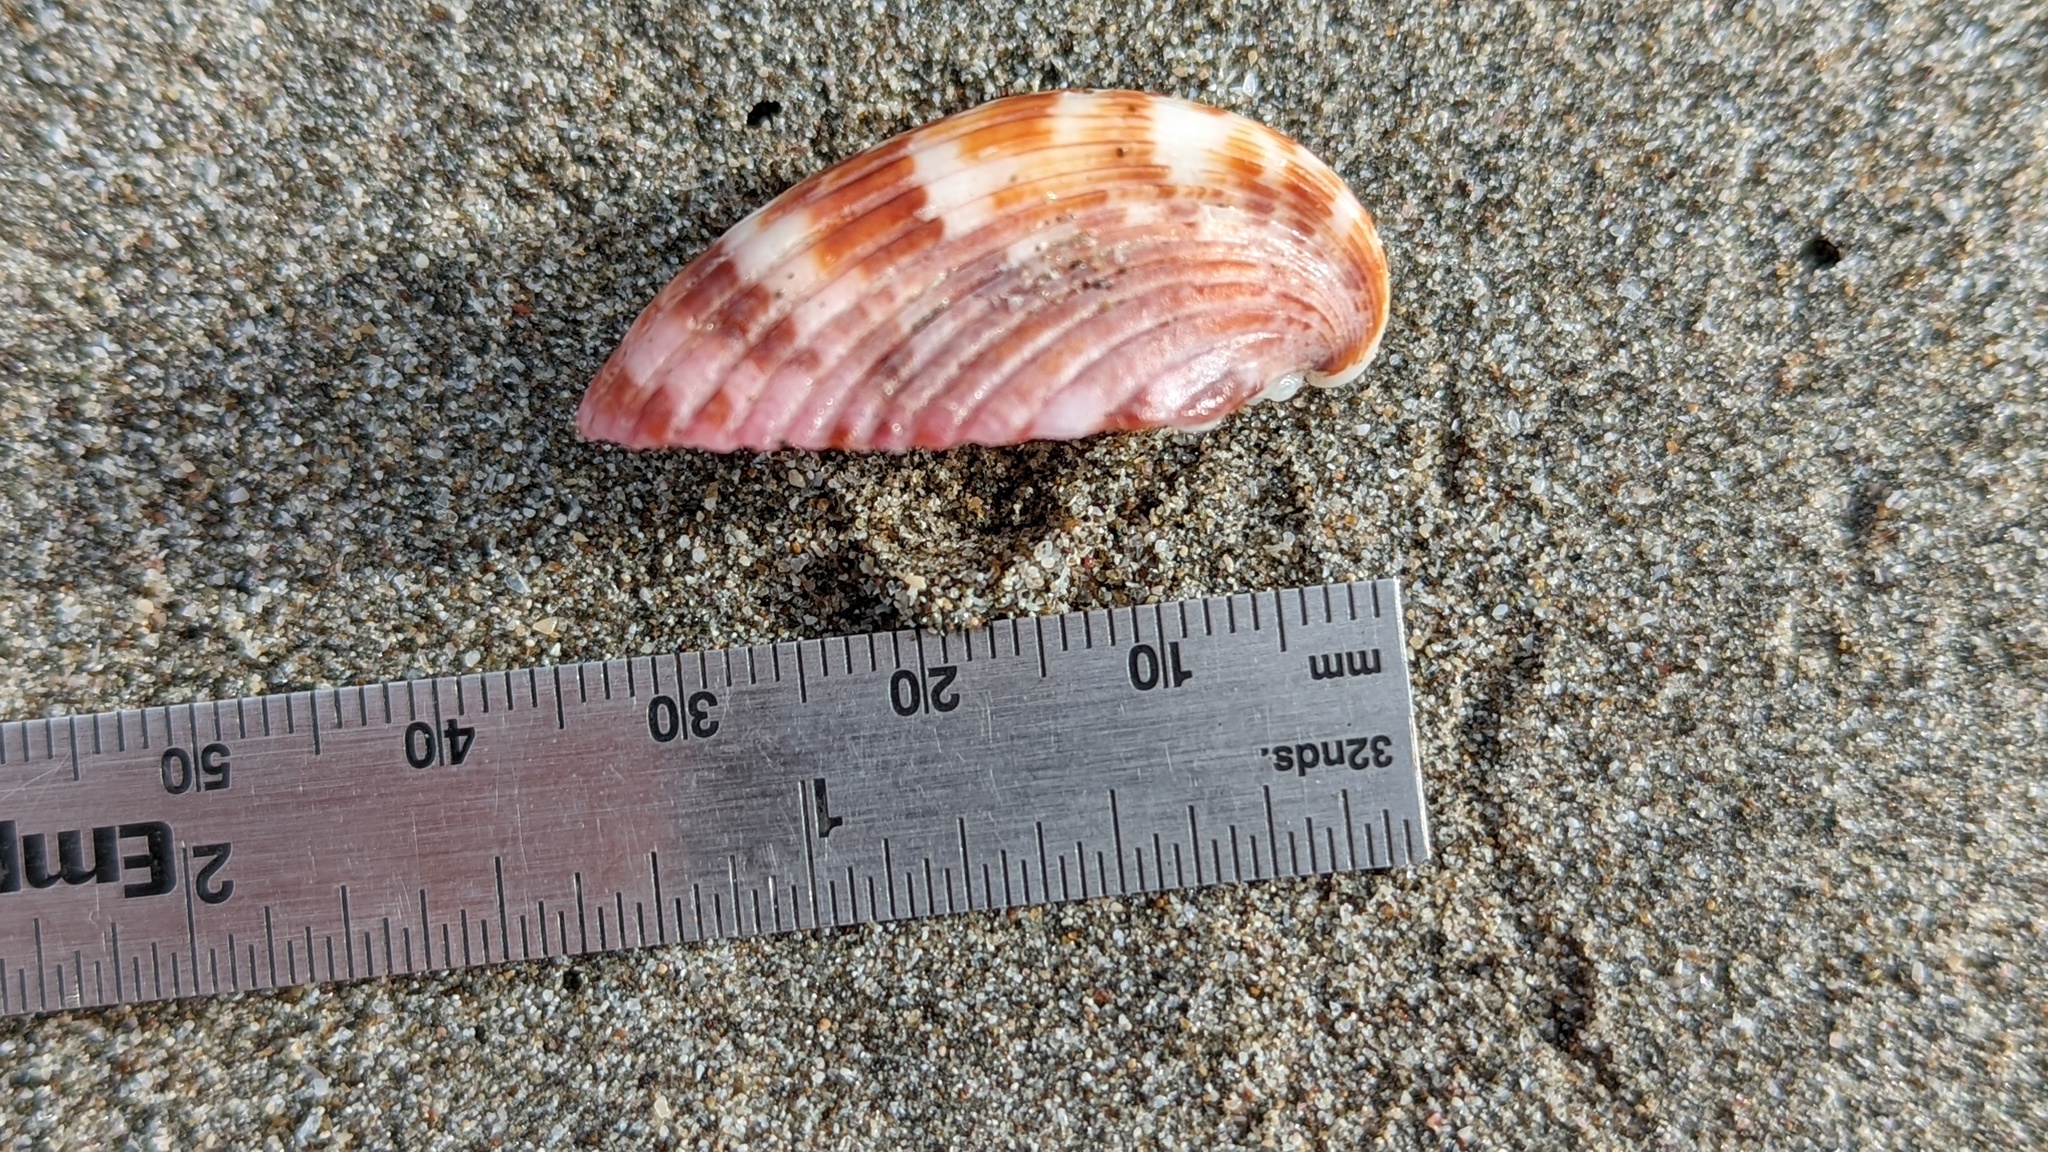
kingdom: Animalia
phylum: Mollusca
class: Bivalvia
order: Cardiida
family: Cardiidae
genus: Americardia
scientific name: Americardia planicostata
